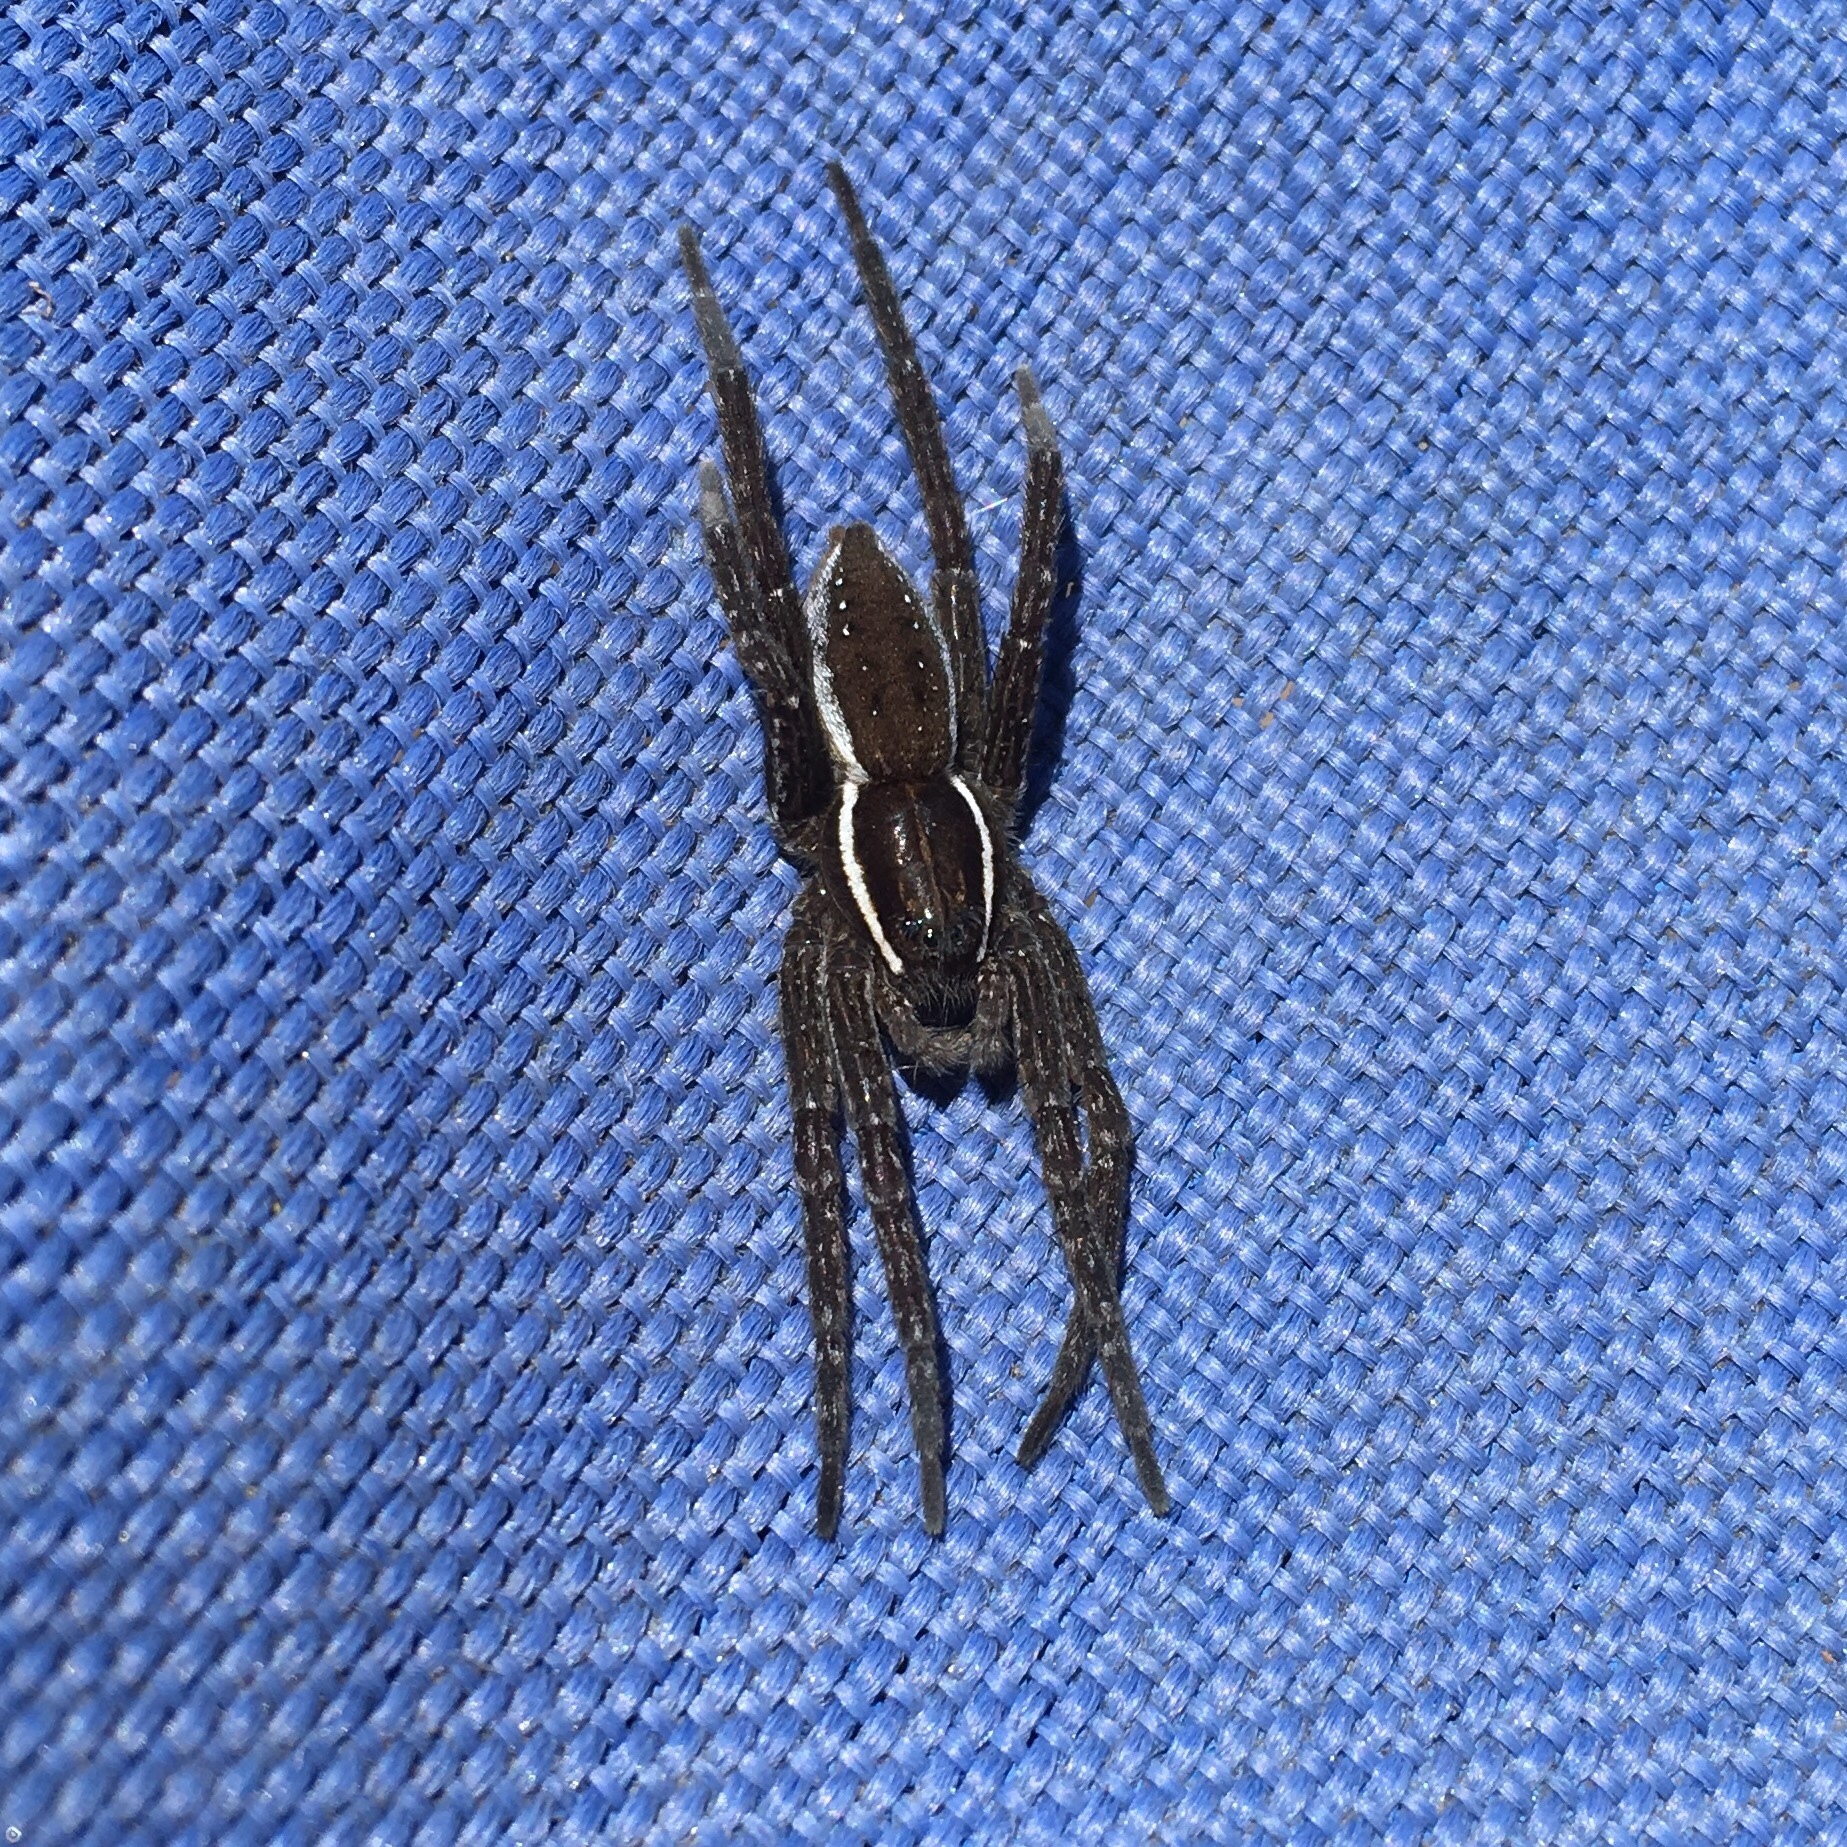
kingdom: Animalia
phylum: Arthropoda
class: Arachnida
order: Araneae
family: Pisauridae
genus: Dolomedes
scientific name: Dolomedes triton
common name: Six-spotted fishing spider
